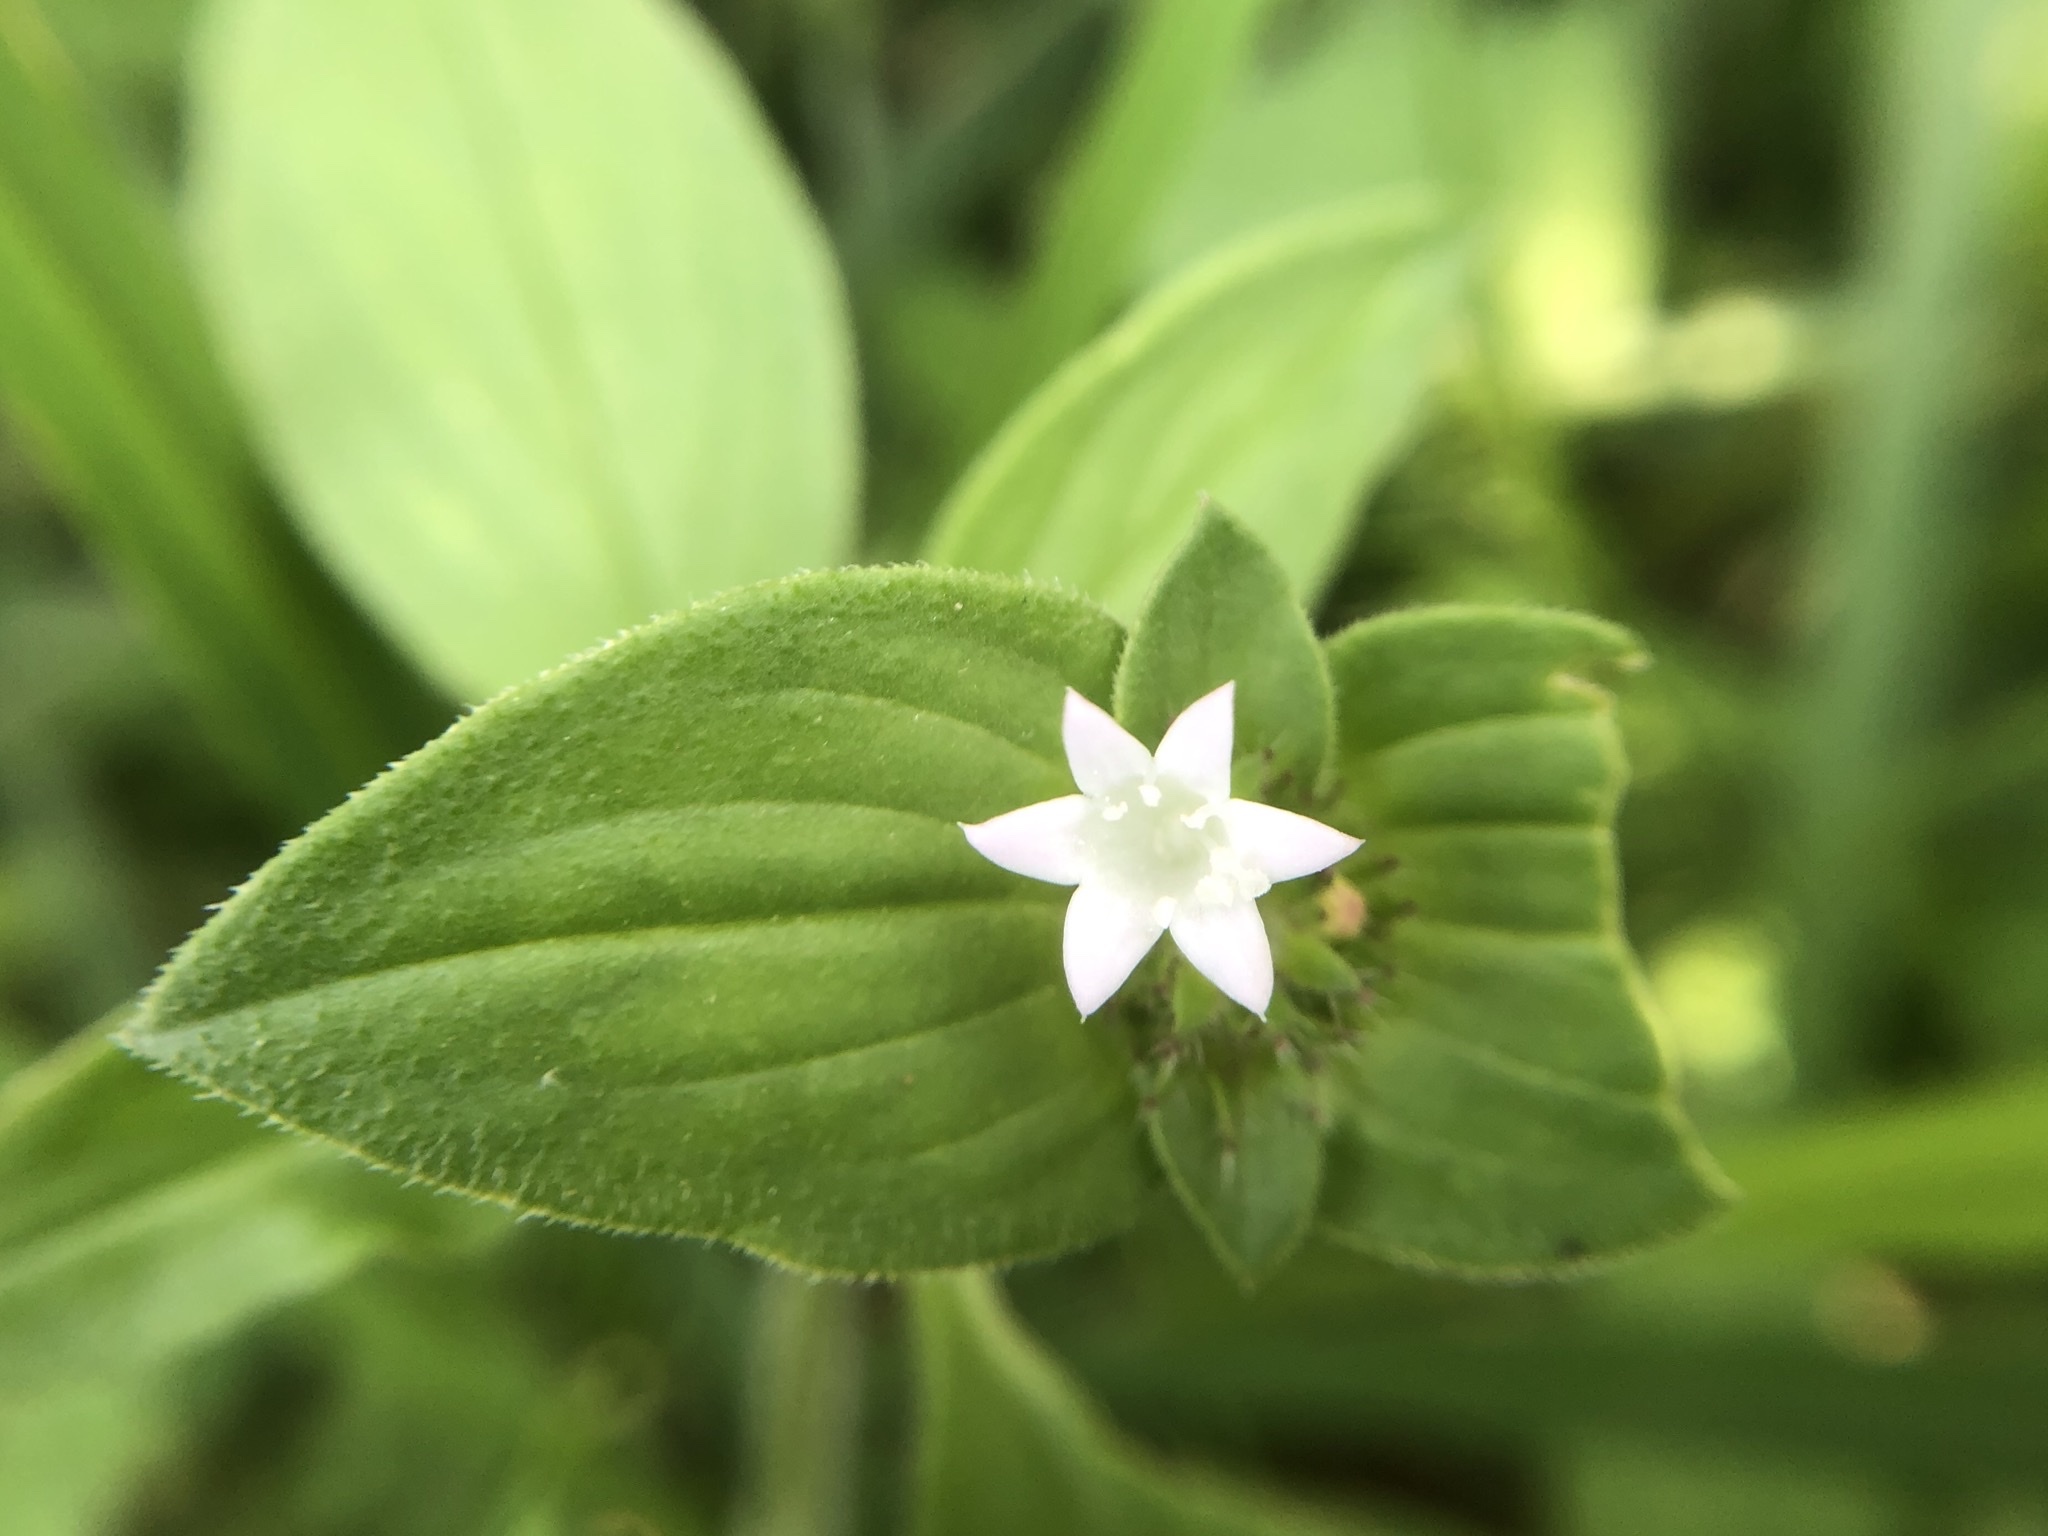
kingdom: Plantae
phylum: Tracheophyta
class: Magnoliopsida
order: Gentianales
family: Rubiaceae
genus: Richardia
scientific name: Richardia scabra
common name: Rough mexican clover
